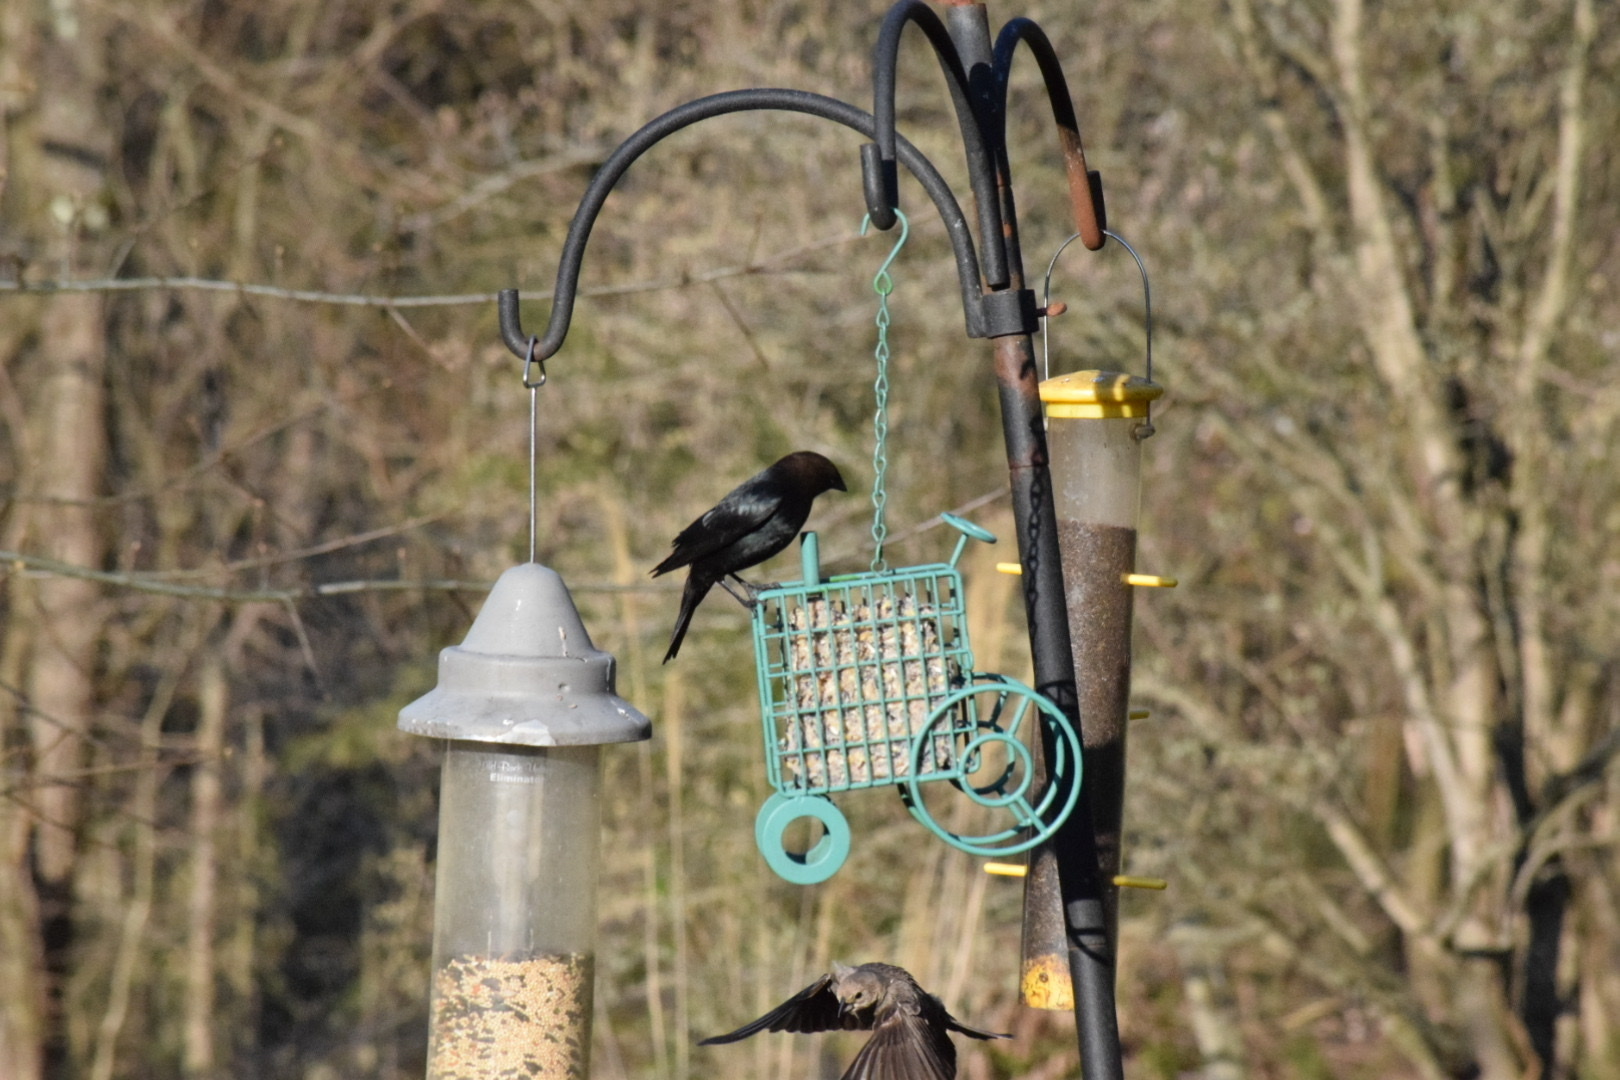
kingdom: Animalia
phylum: Chordata
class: Aves
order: Passeriformes
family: Icteridae
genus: Molothrus
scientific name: Molothrus ater
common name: Brown-headed cowbird
